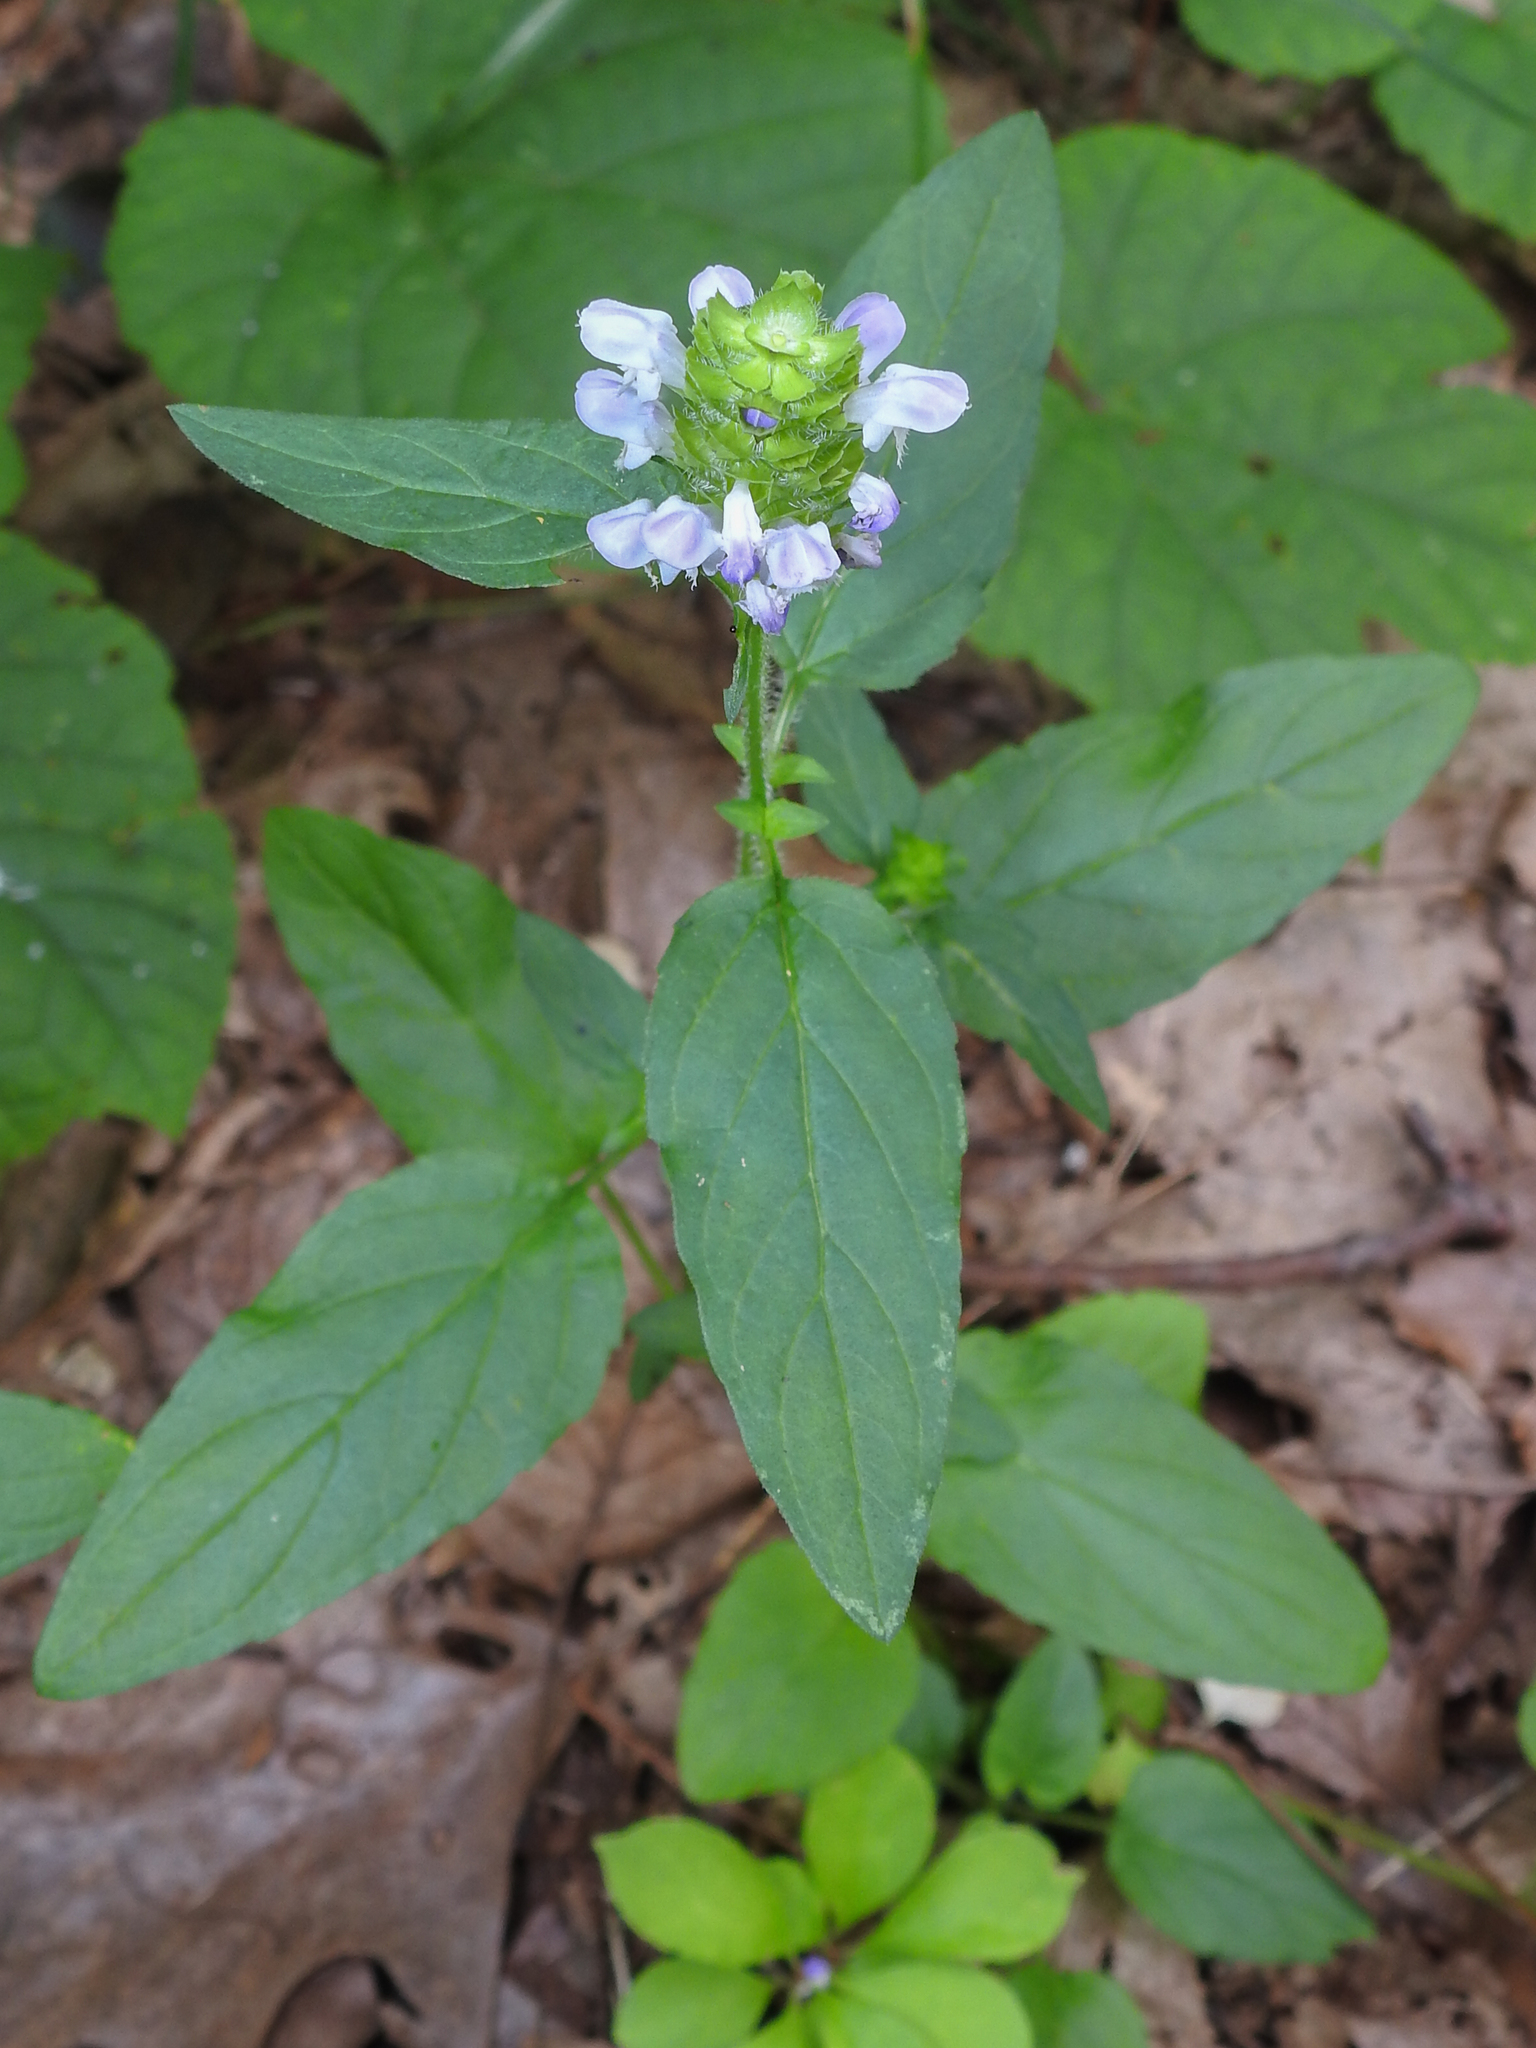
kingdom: Plantae
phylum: Tracheophyta
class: Magnoliopsida
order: Lamiales
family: Lamiaceae
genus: Prunella
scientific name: Prunella vulgaris
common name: Heal-all
